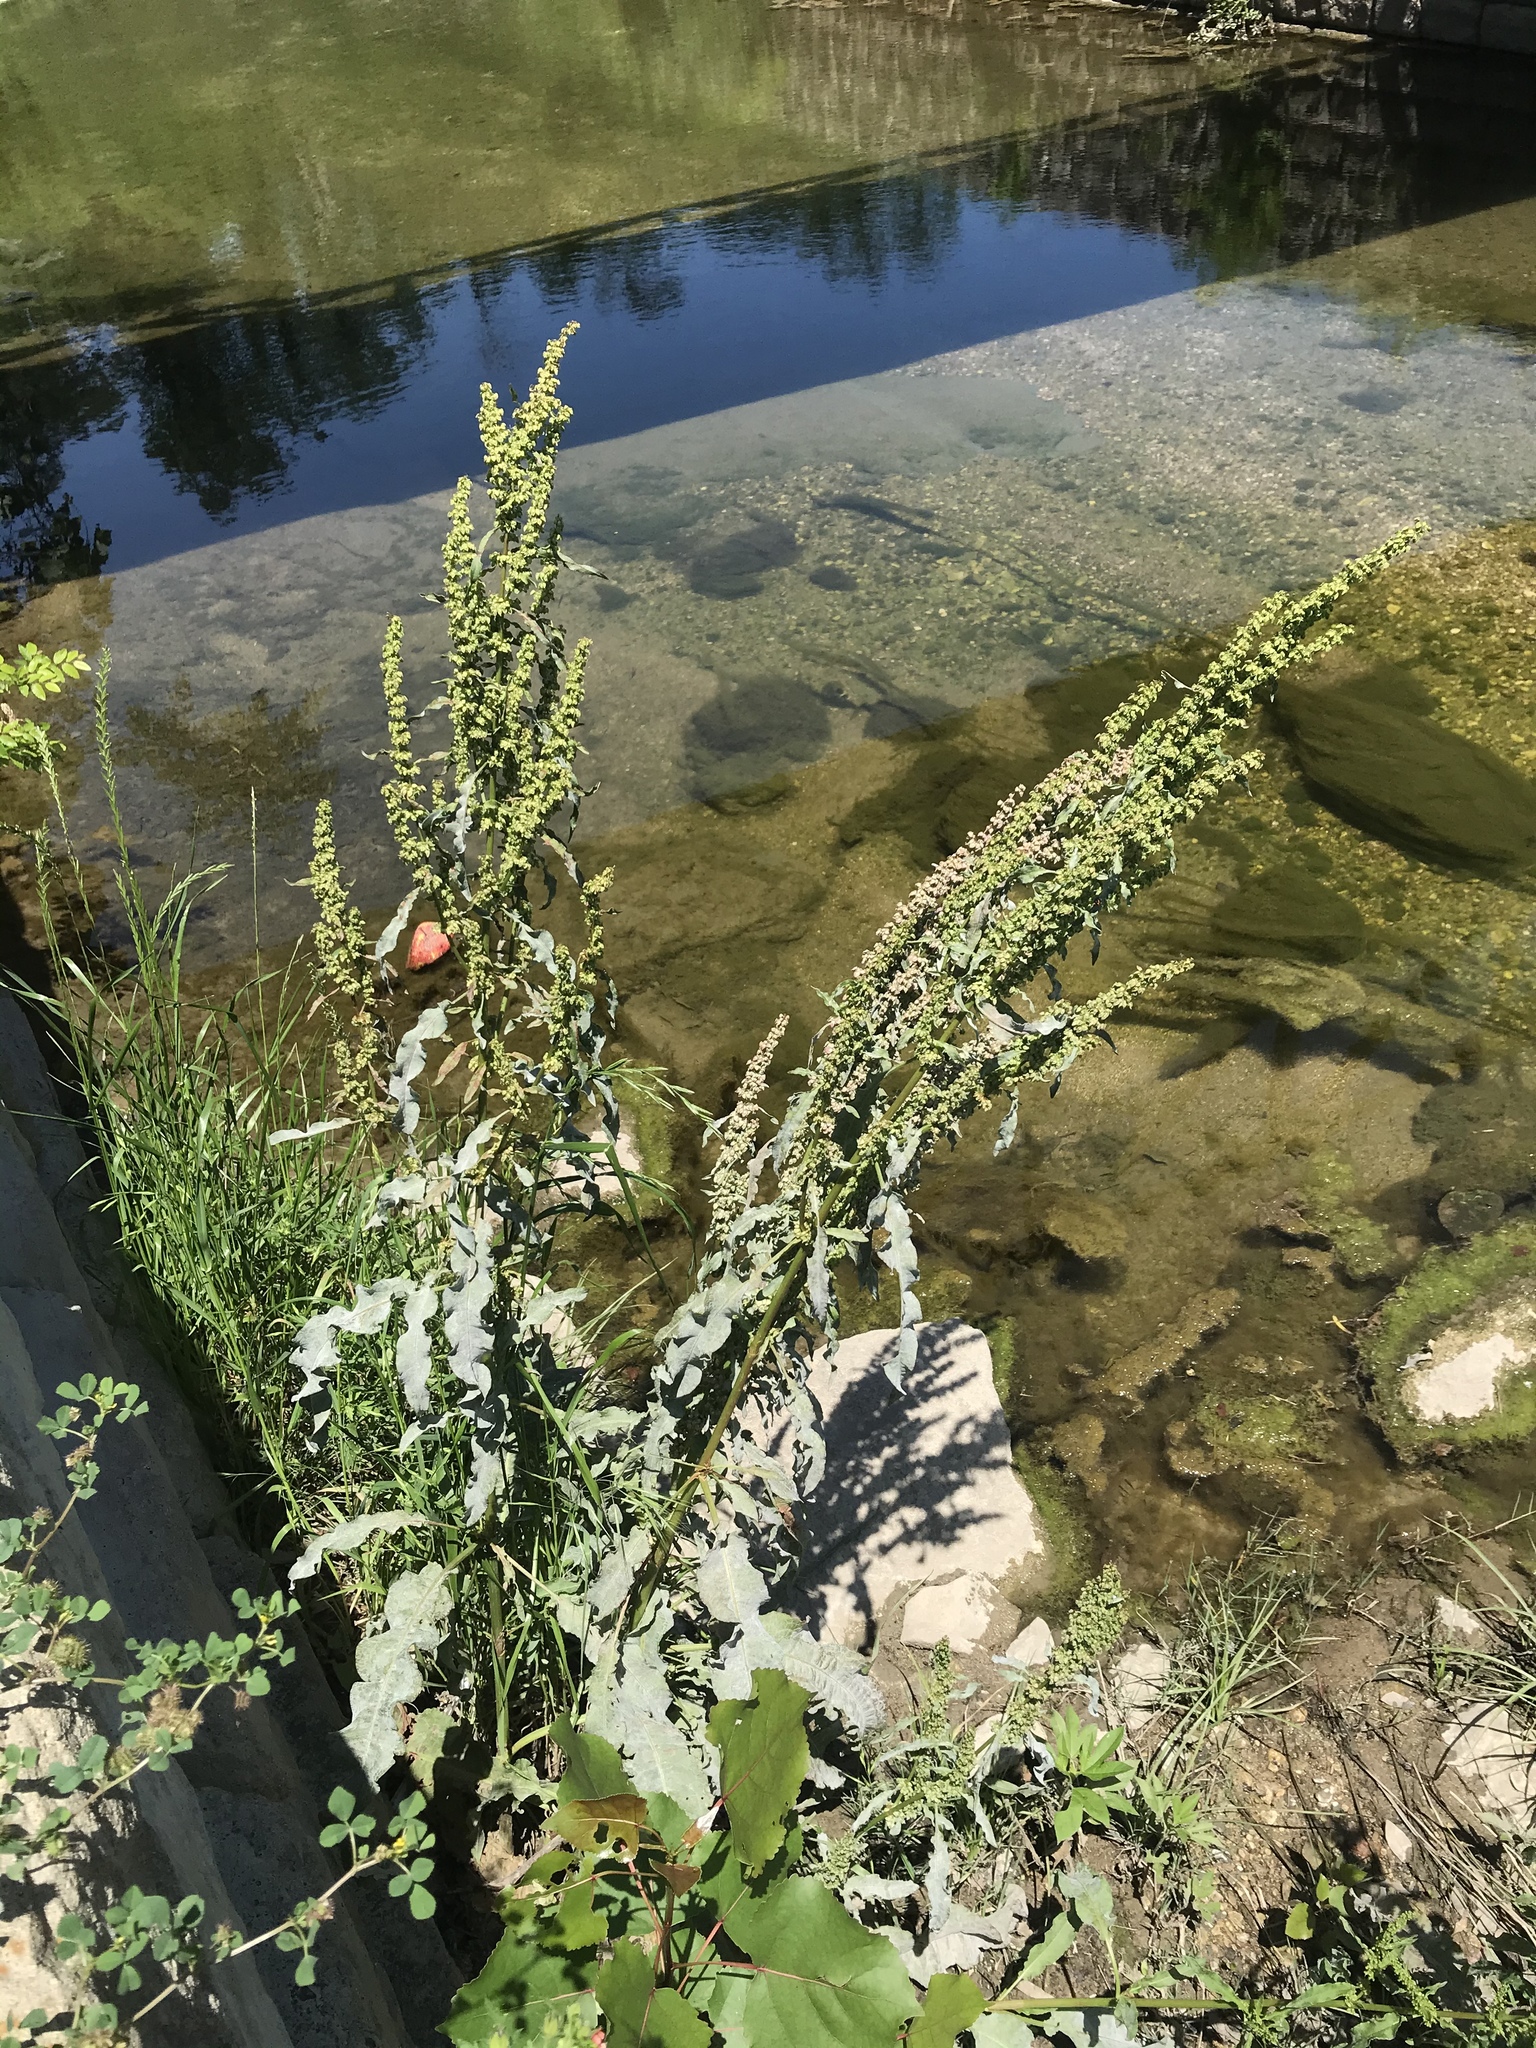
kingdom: Plantae
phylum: Tracheophyta
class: Magnoliopsida
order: Caryophyllales
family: Polygonaceae
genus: Rumex
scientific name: Rumex crispus
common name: Curled dock
